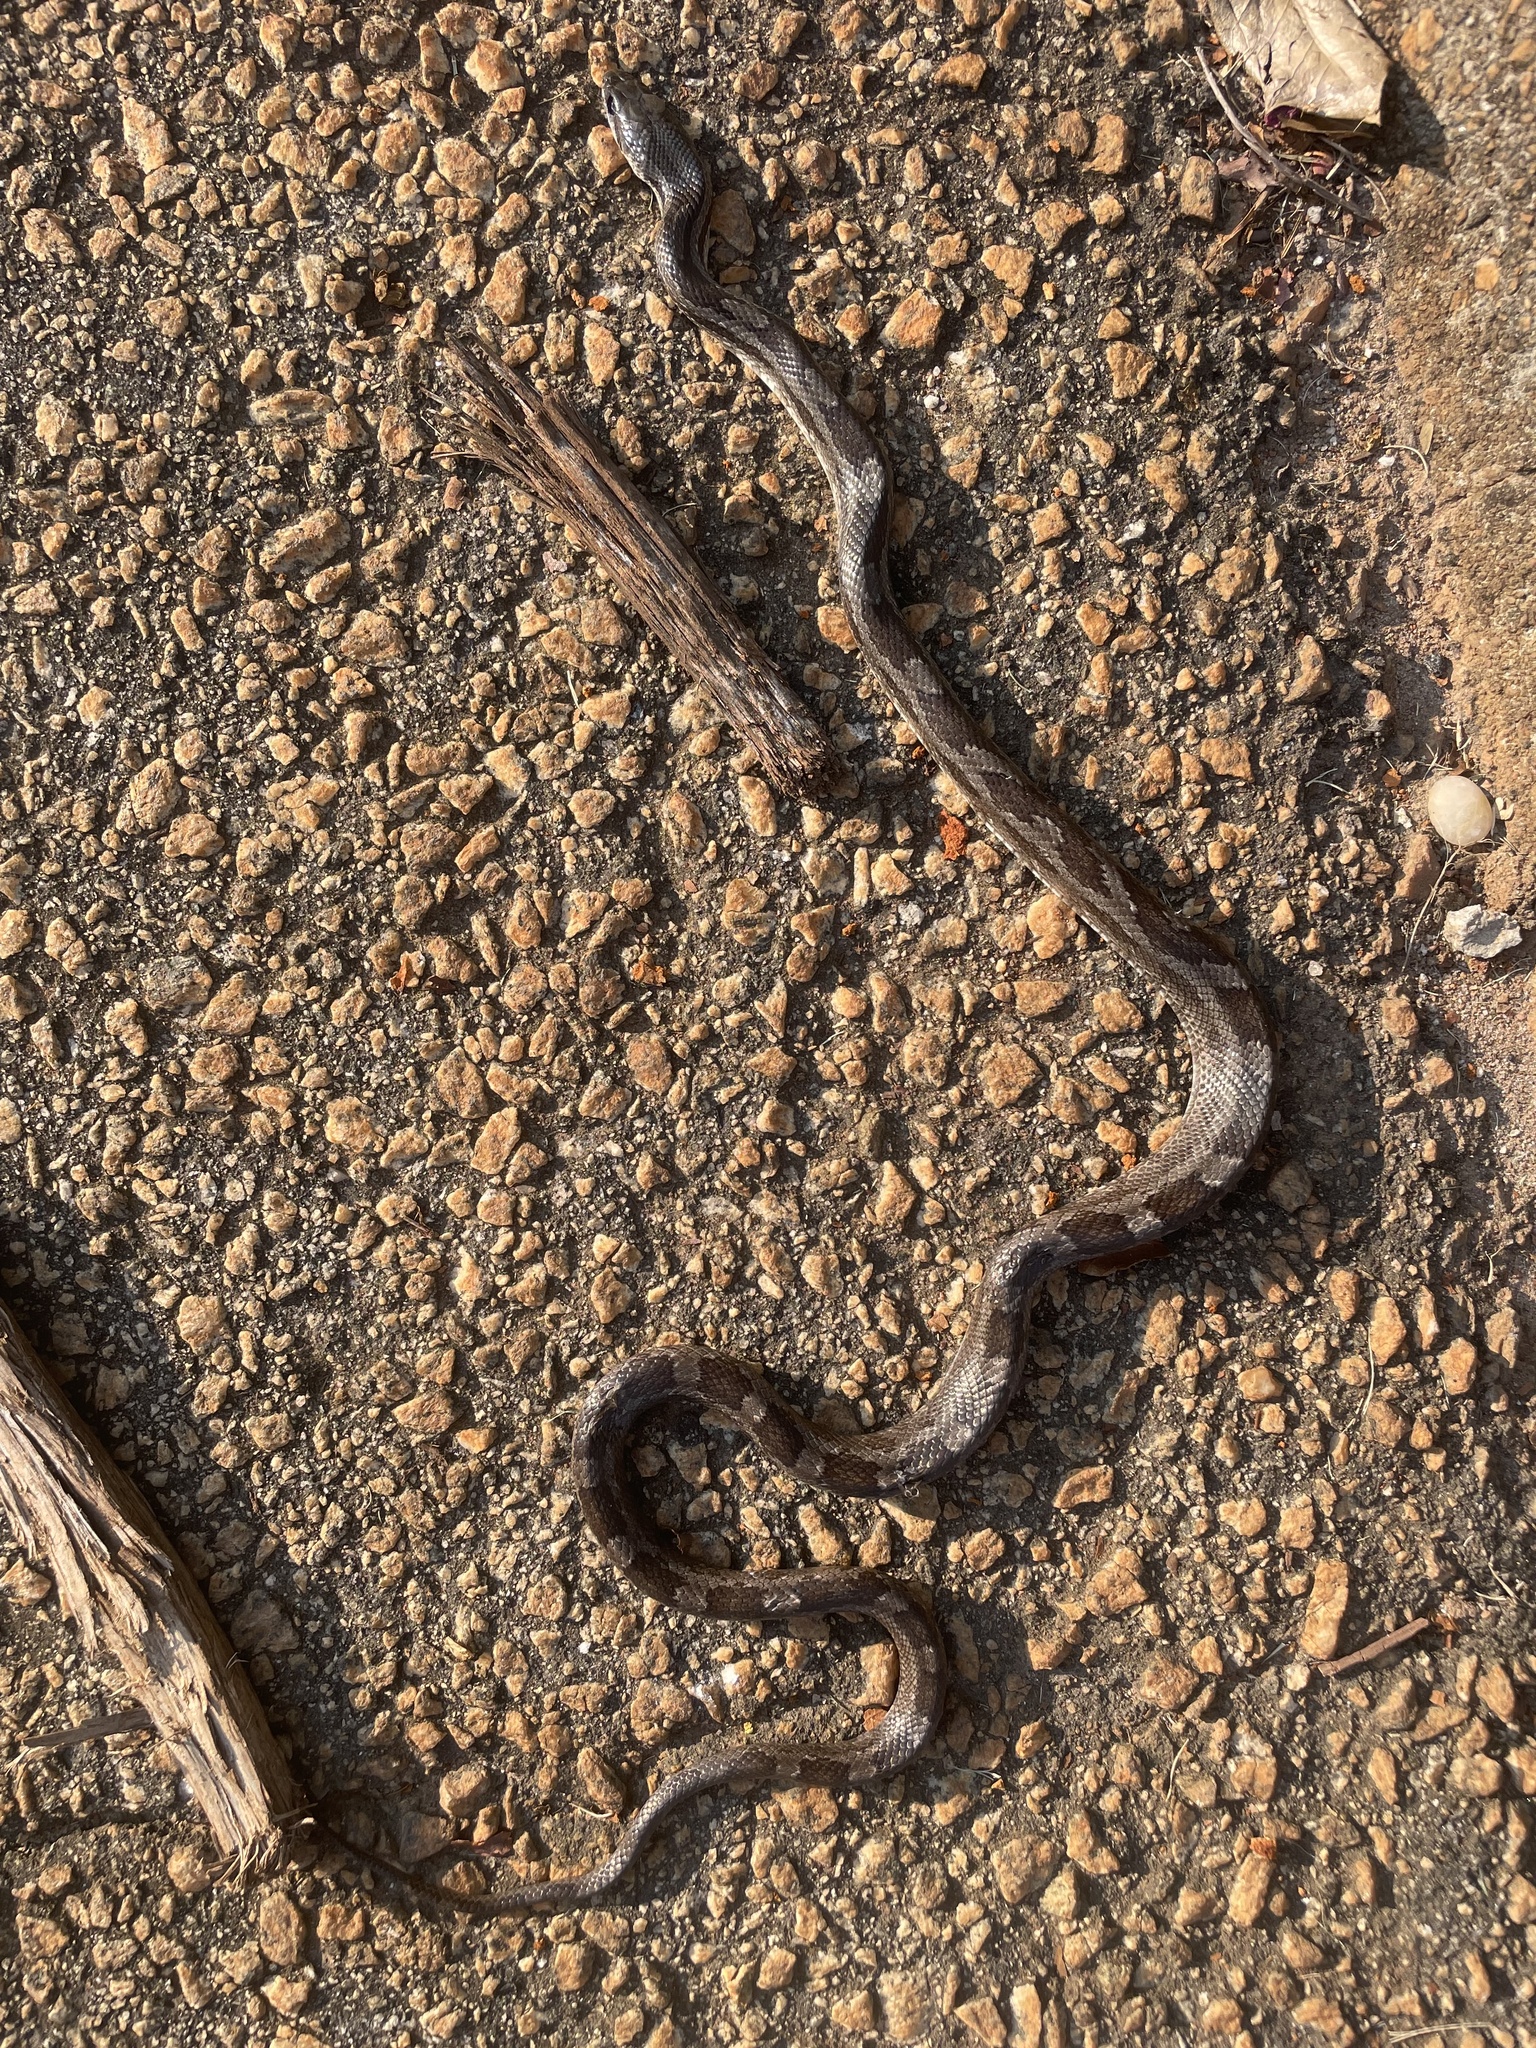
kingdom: Animalia
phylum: Chordata
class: Squamata
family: Colubridae
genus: Pantherophis
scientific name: Pantherophis
